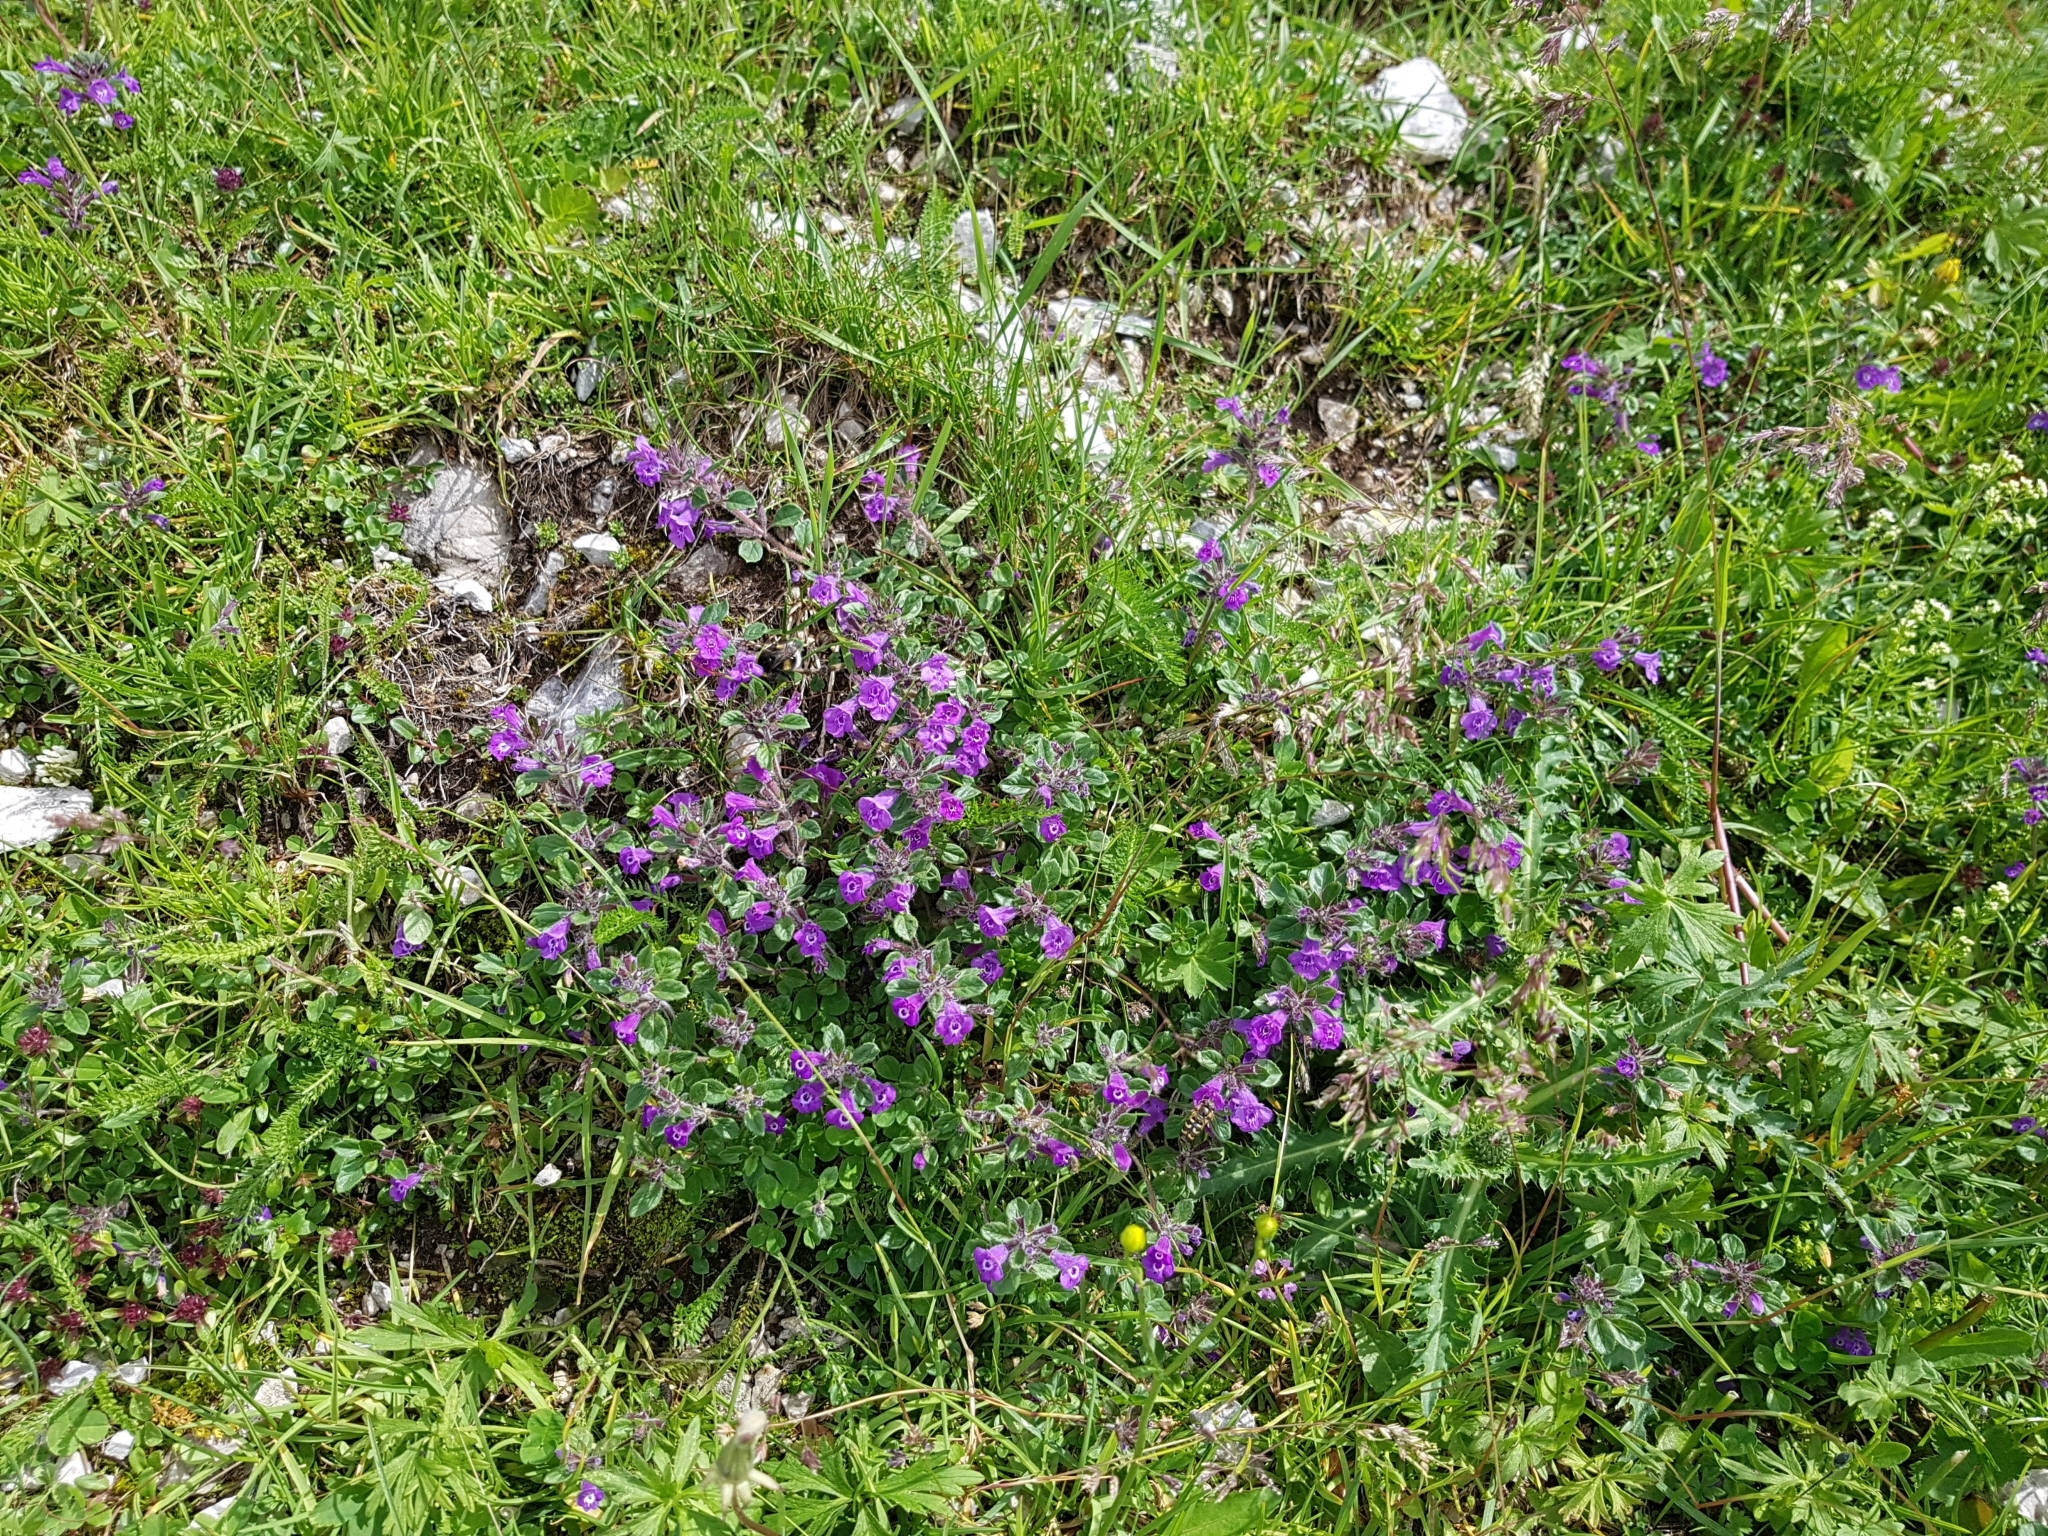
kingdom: Plantae
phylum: Tracheophyta
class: Magnoliopsida
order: Lamiales
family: Lamiaceae
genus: Clinopodium
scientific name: Clinopodium alpinum
